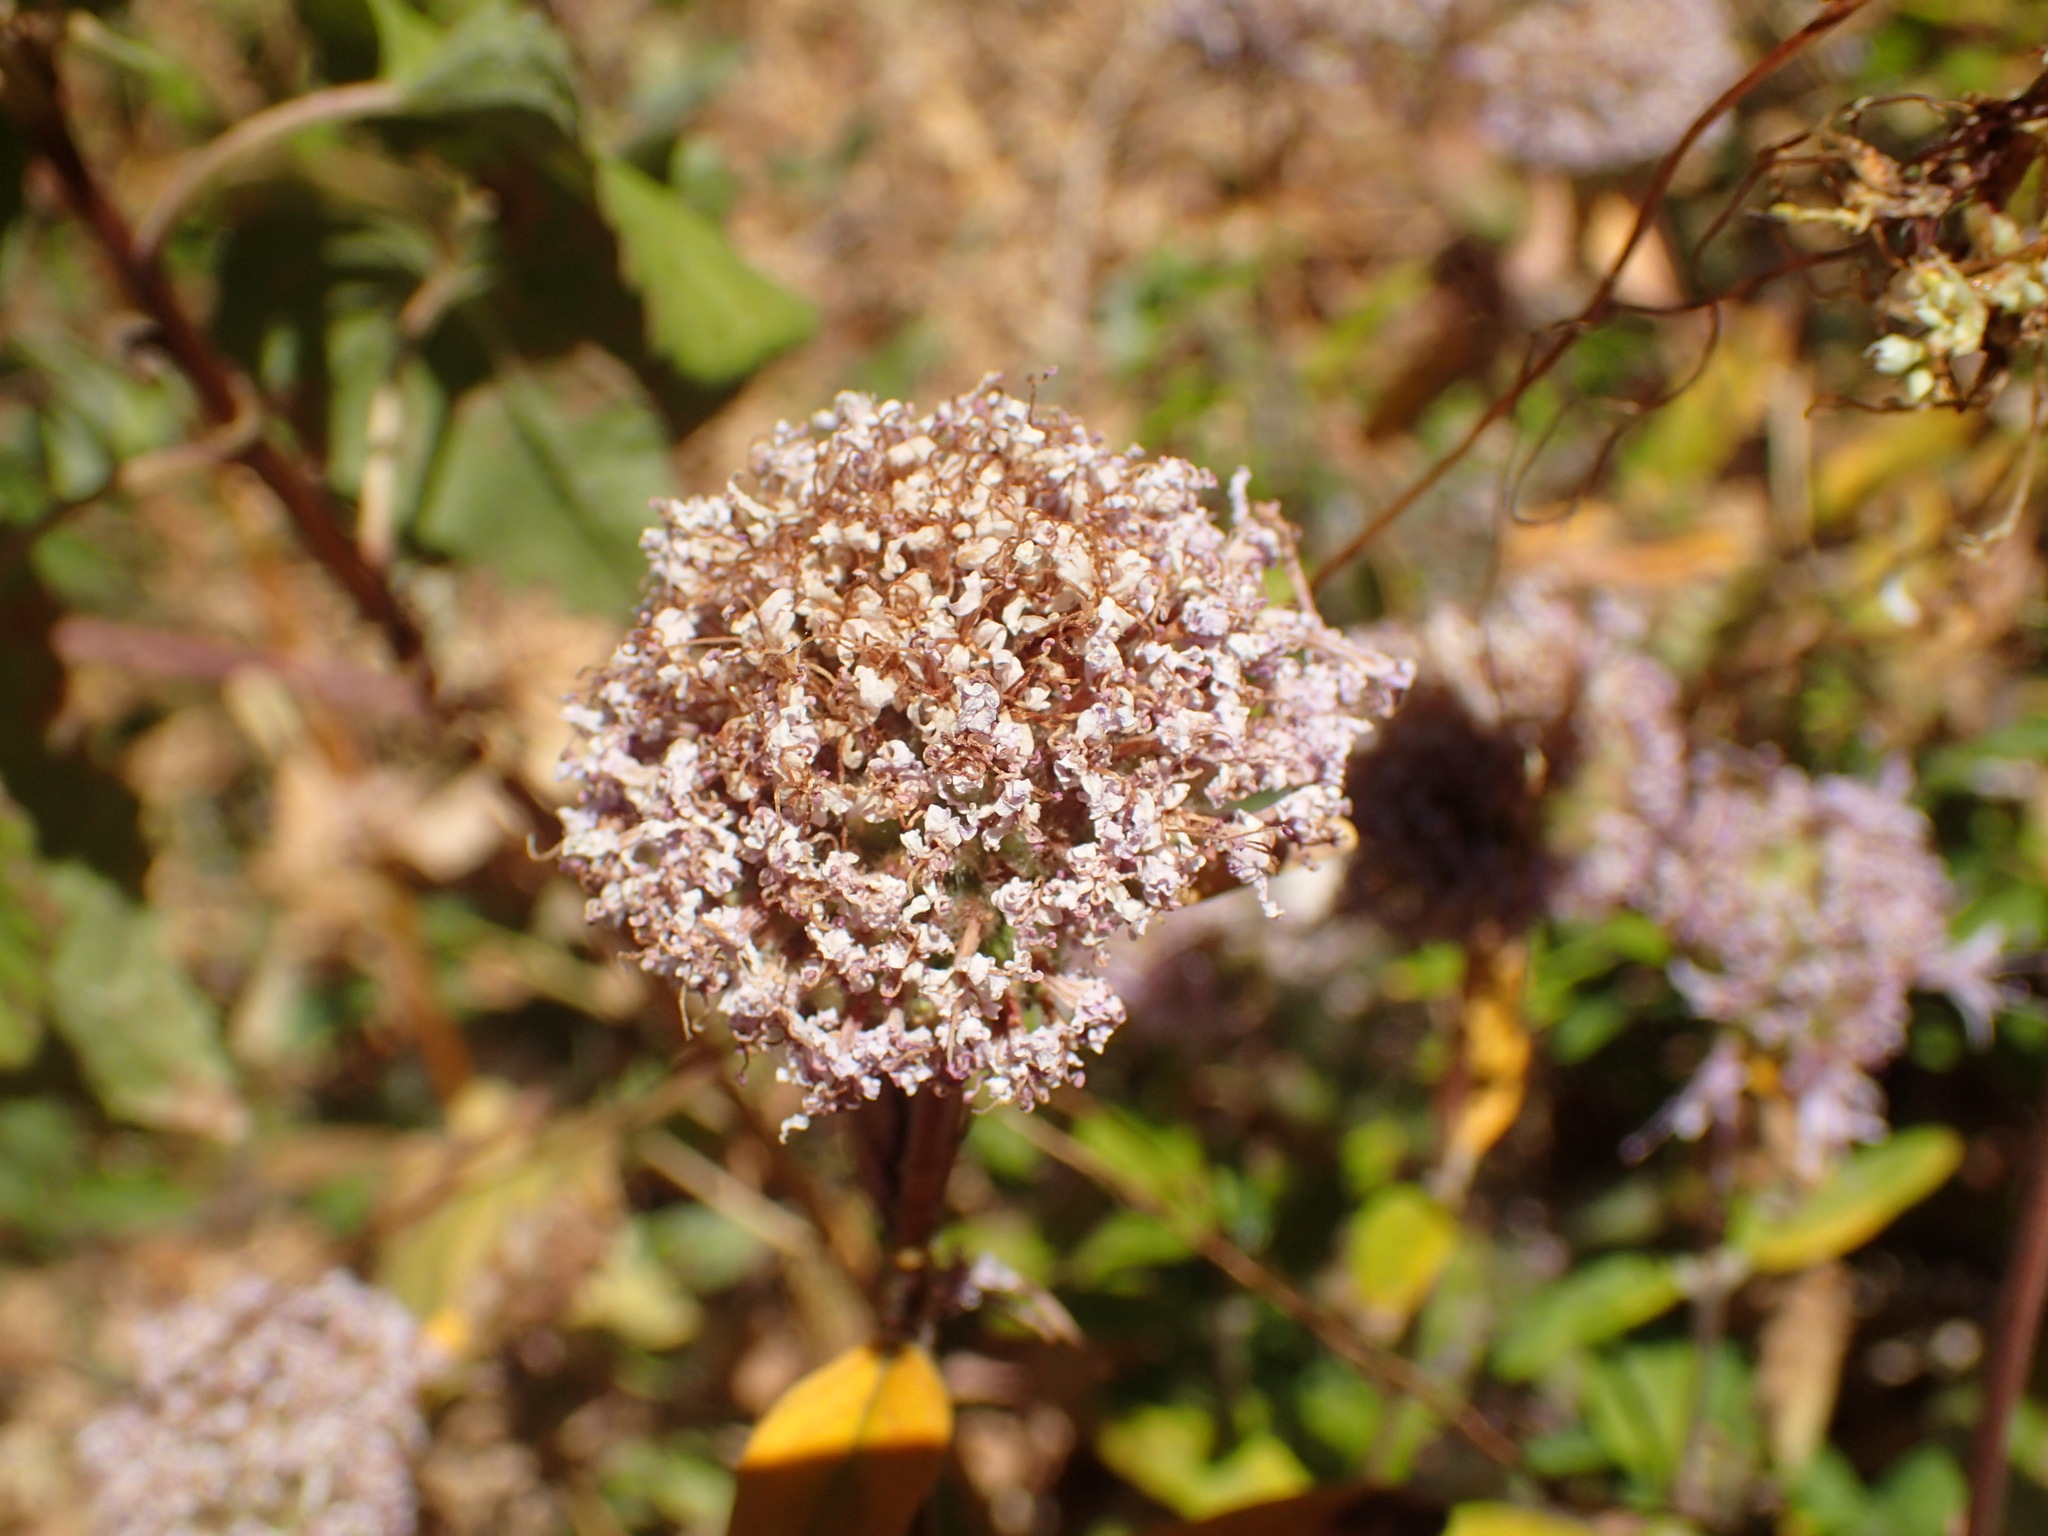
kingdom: Plantae
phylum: Tracheophyta
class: Magnoliopsida
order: Lamiales
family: Lamiaceae
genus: Monardella
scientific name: Monardella hypoleuca
